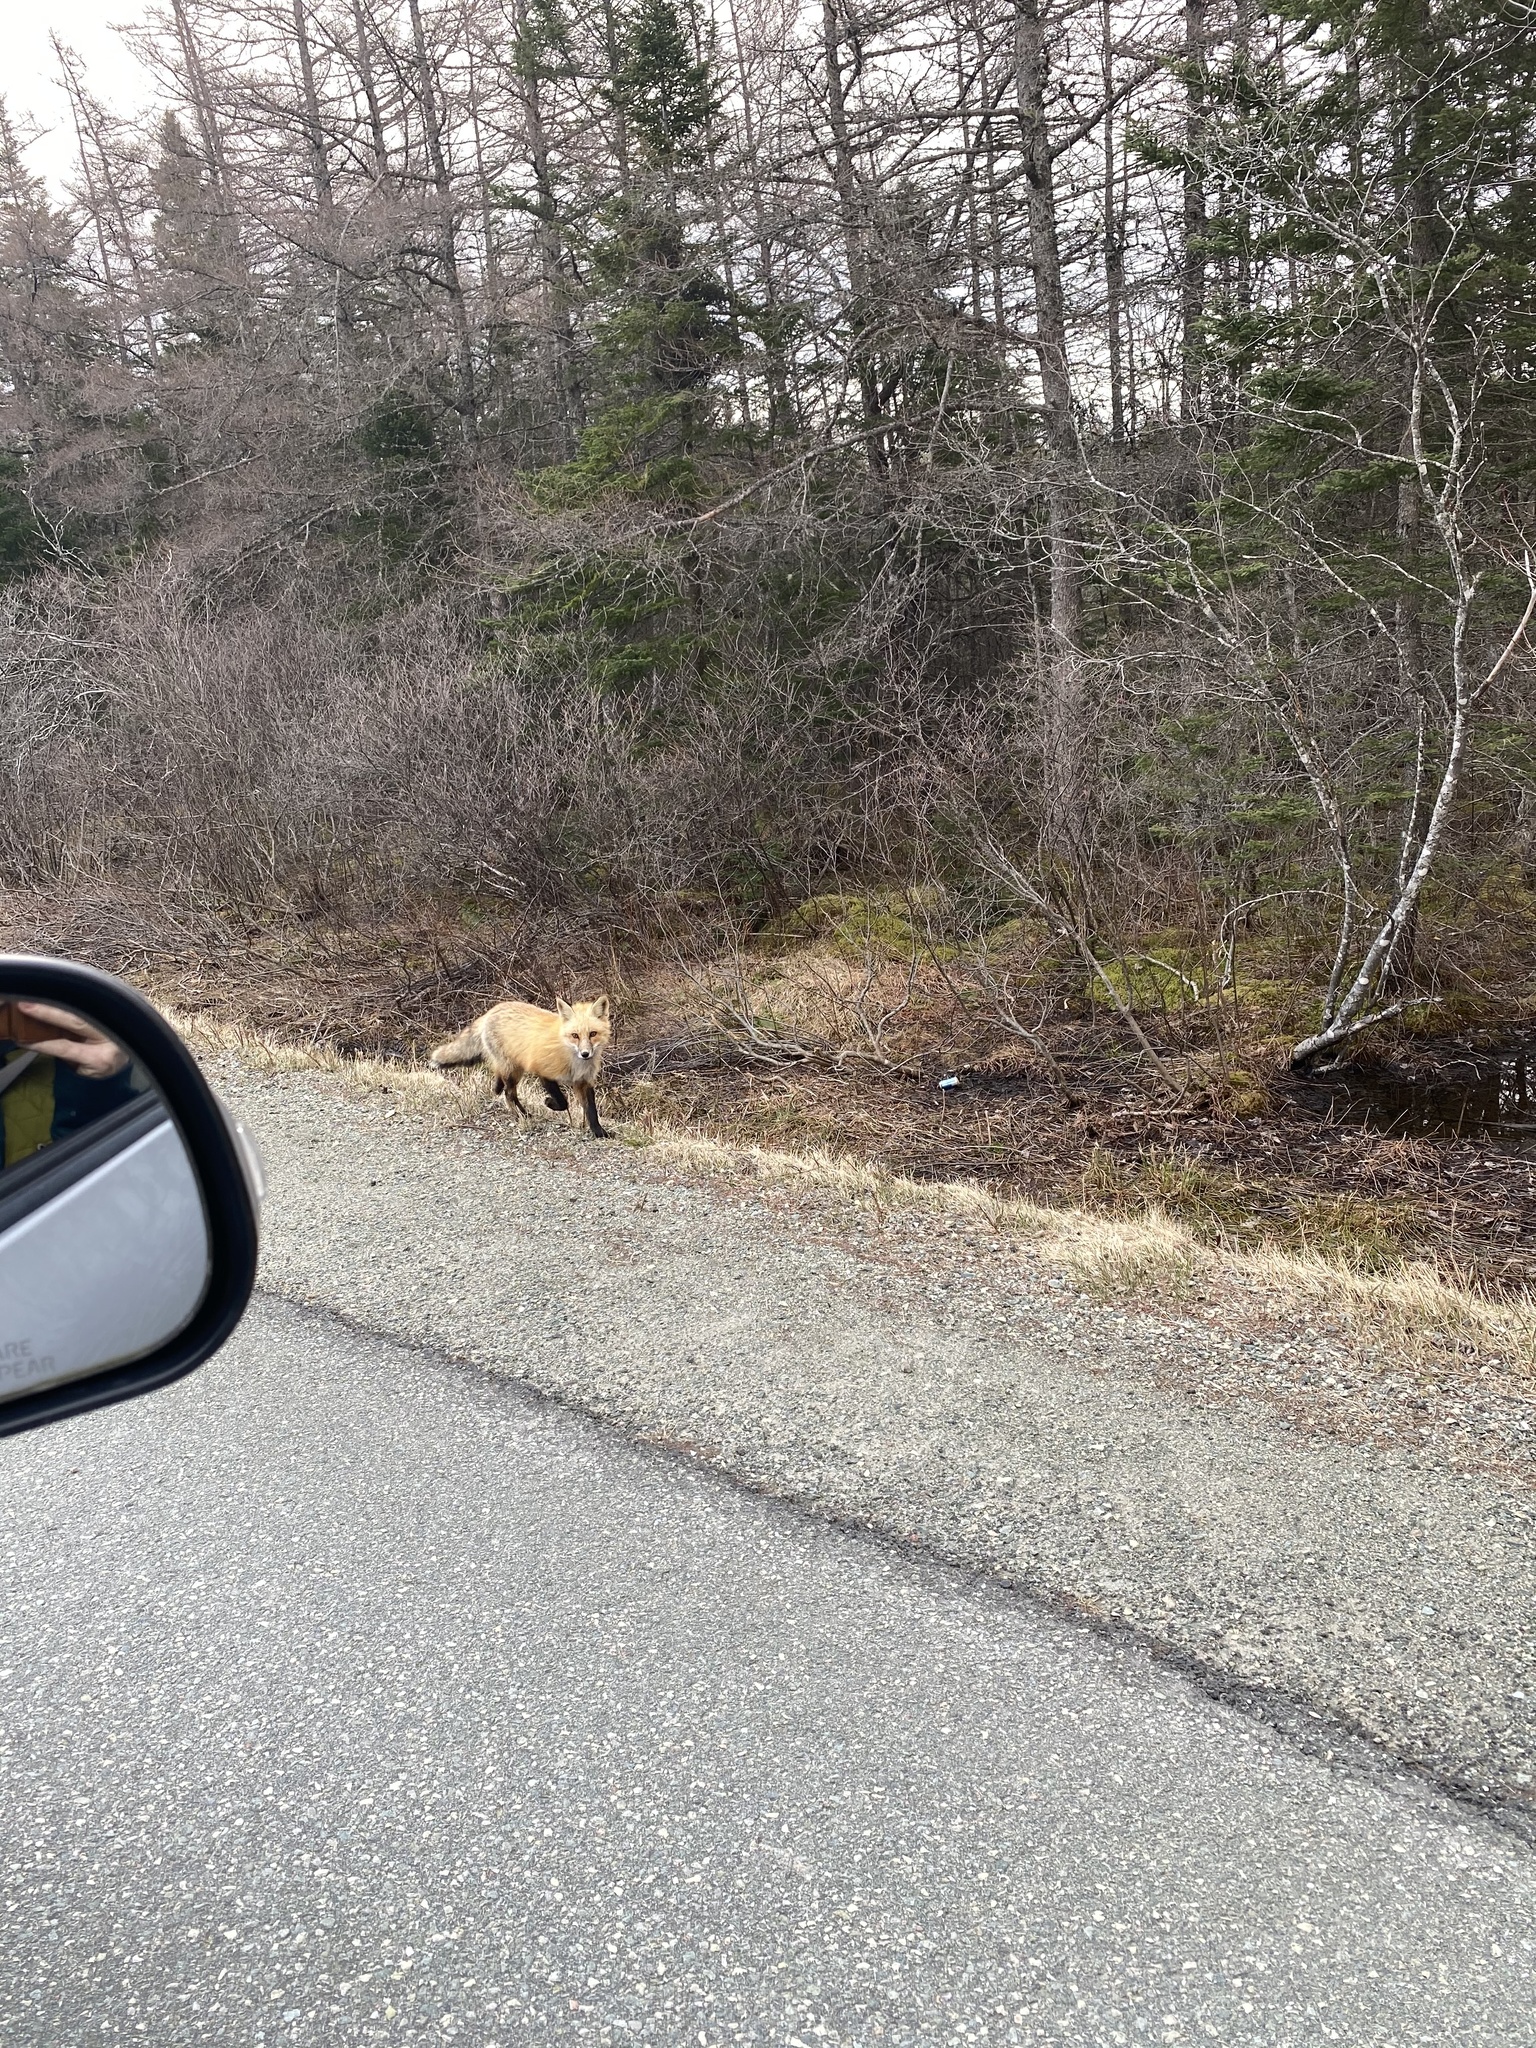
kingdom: Animalia
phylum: Chordata
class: Mammalia
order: Carnivora
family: Canidae
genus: Vulpes
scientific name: Vulpes vulpes
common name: Red fox
